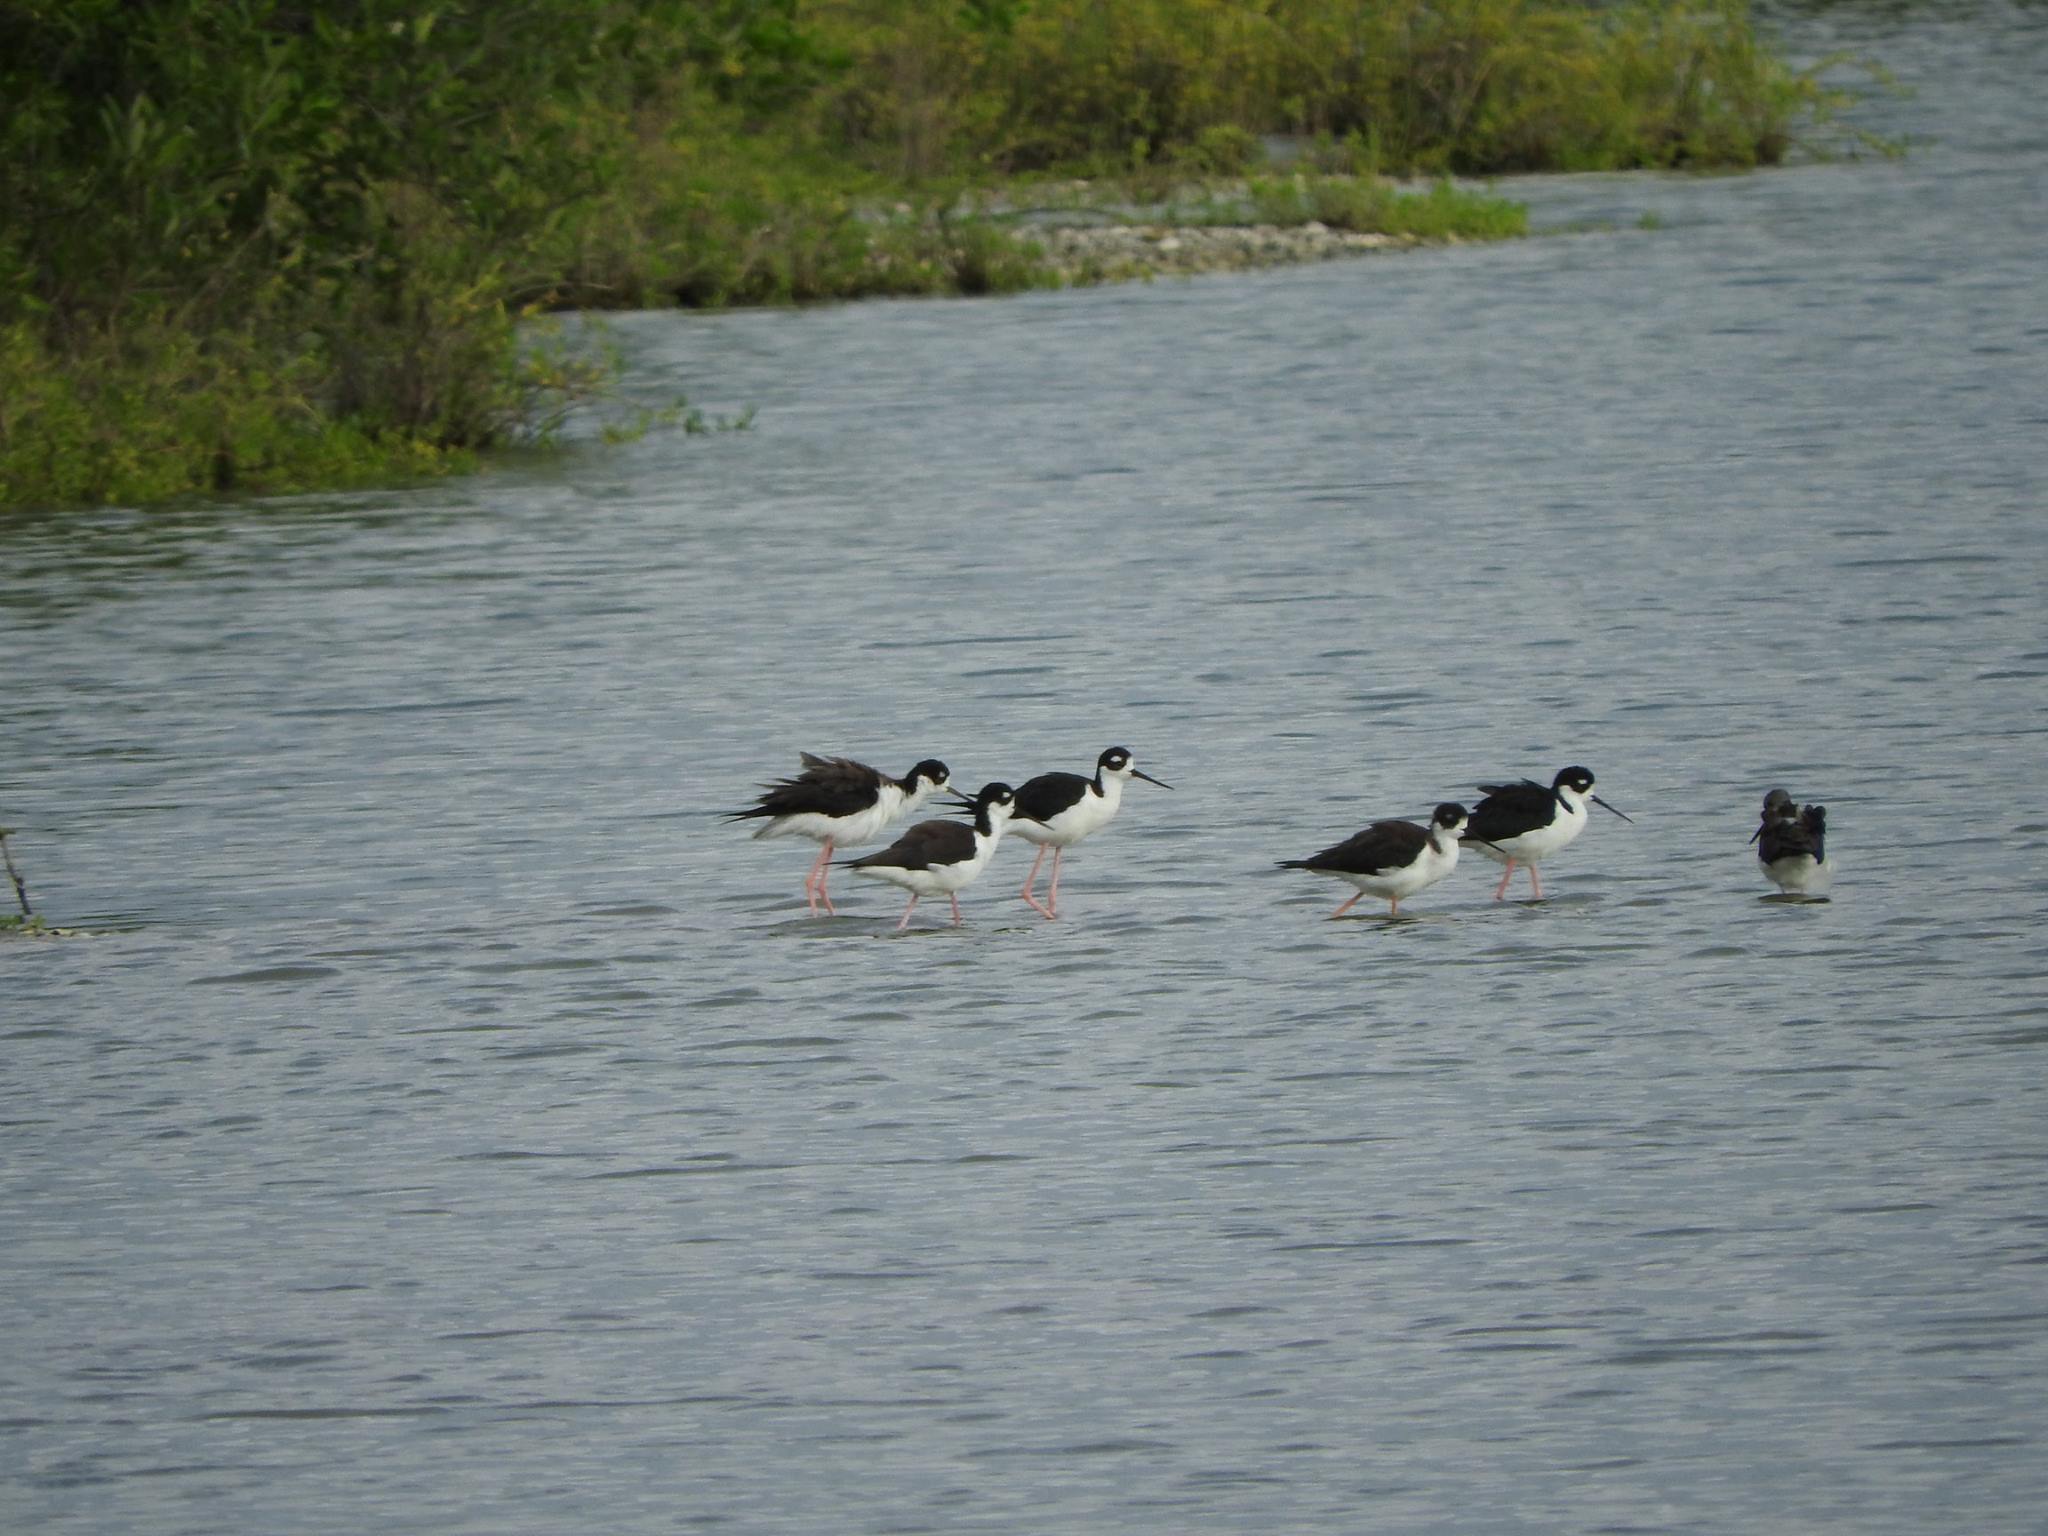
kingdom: Animalia
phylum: Chordata
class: Aves
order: Charadriiformes
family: Recurvirostridae
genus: Himantopus
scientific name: Himantopus mexicanus
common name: Black-necked stilt
